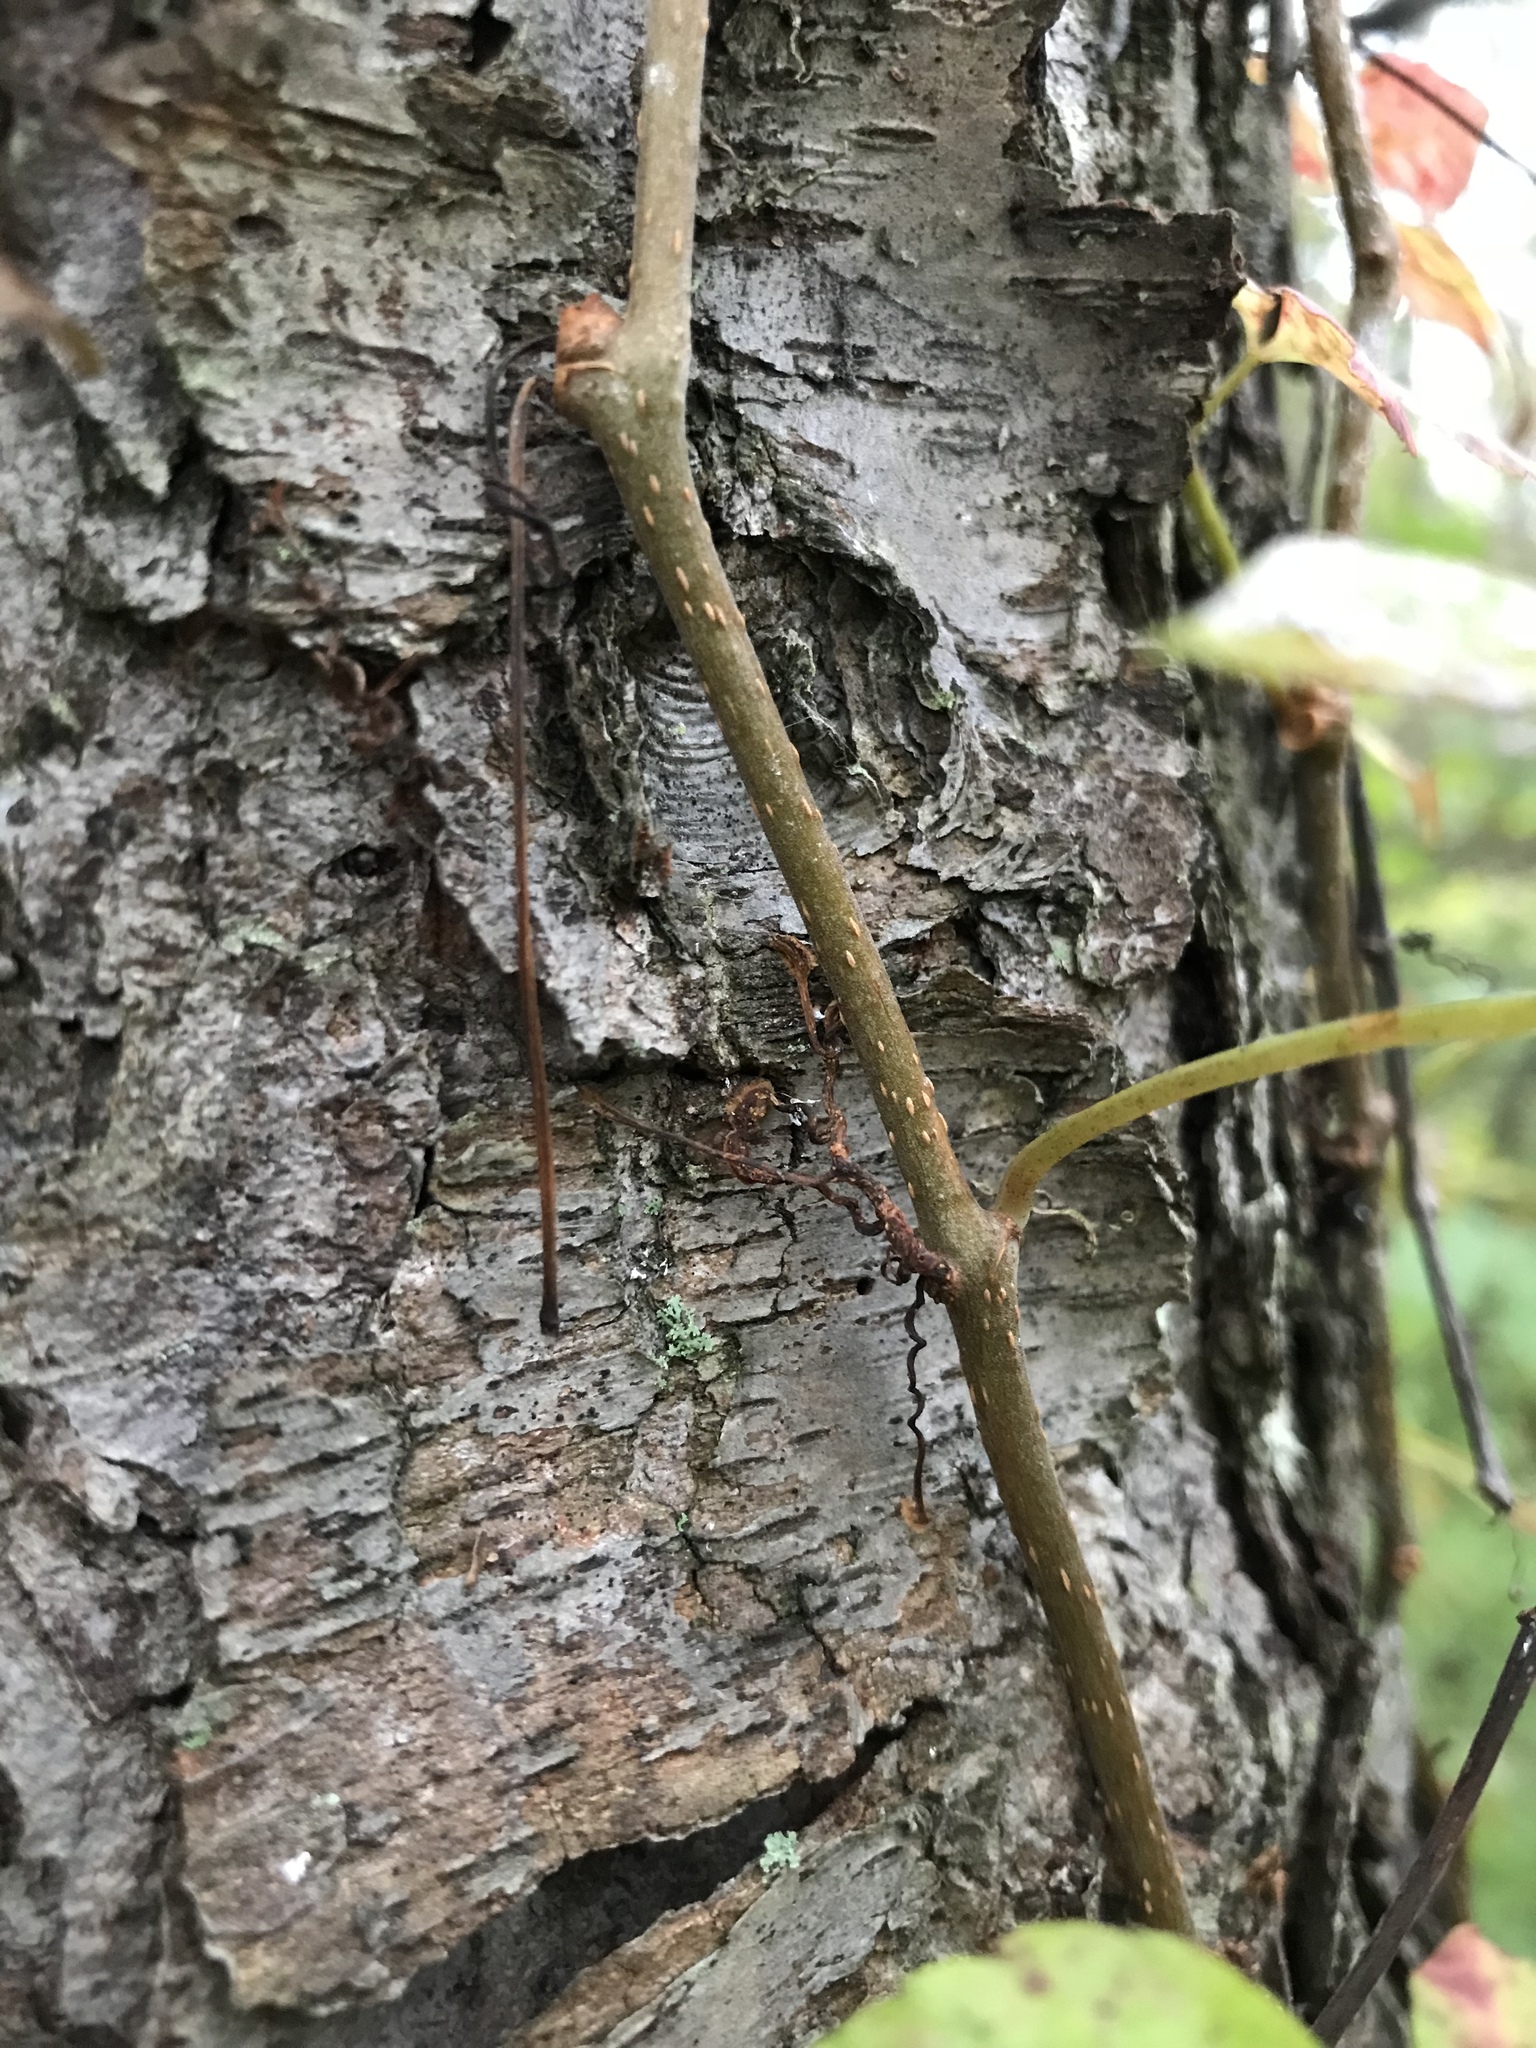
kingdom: Plantae
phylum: Tracheophyta
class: Magnoliopsida
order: Vitales
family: Vitaceae
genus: Parthenocissus
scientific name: Parthenocissus quinquefolia
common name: Virginia-creeper
